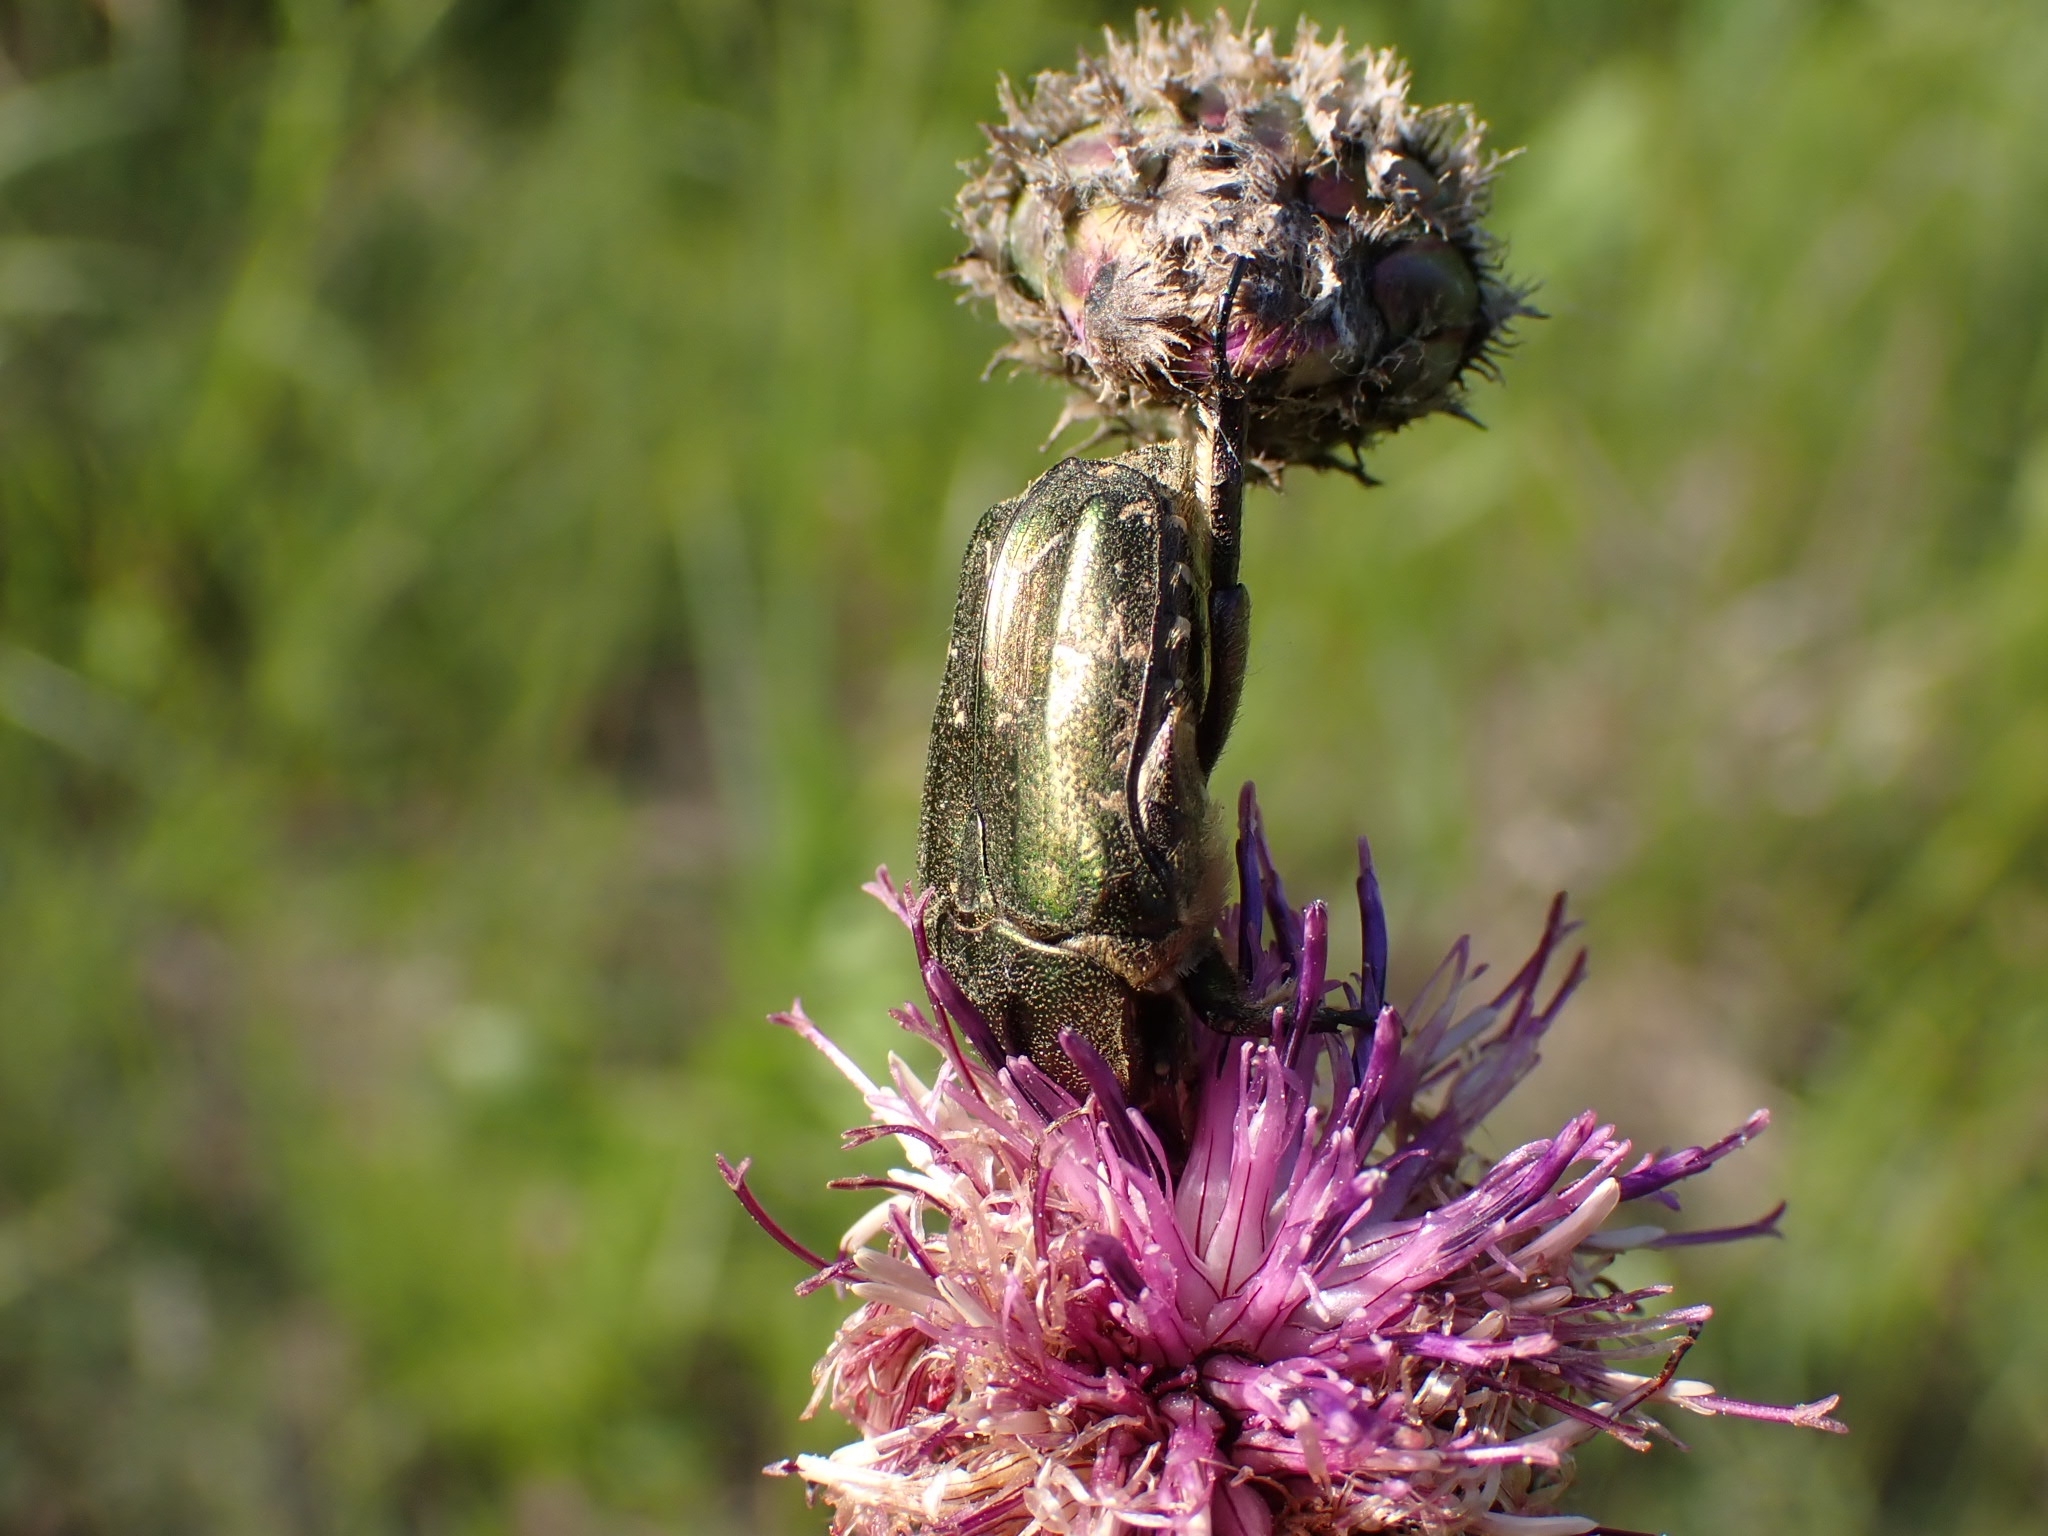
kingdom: Animalia
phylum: Arthropoda
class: Insecta
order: Coleoptera
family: Scarabaeidae
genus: Protaetia
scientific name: Protaetia cuprea
